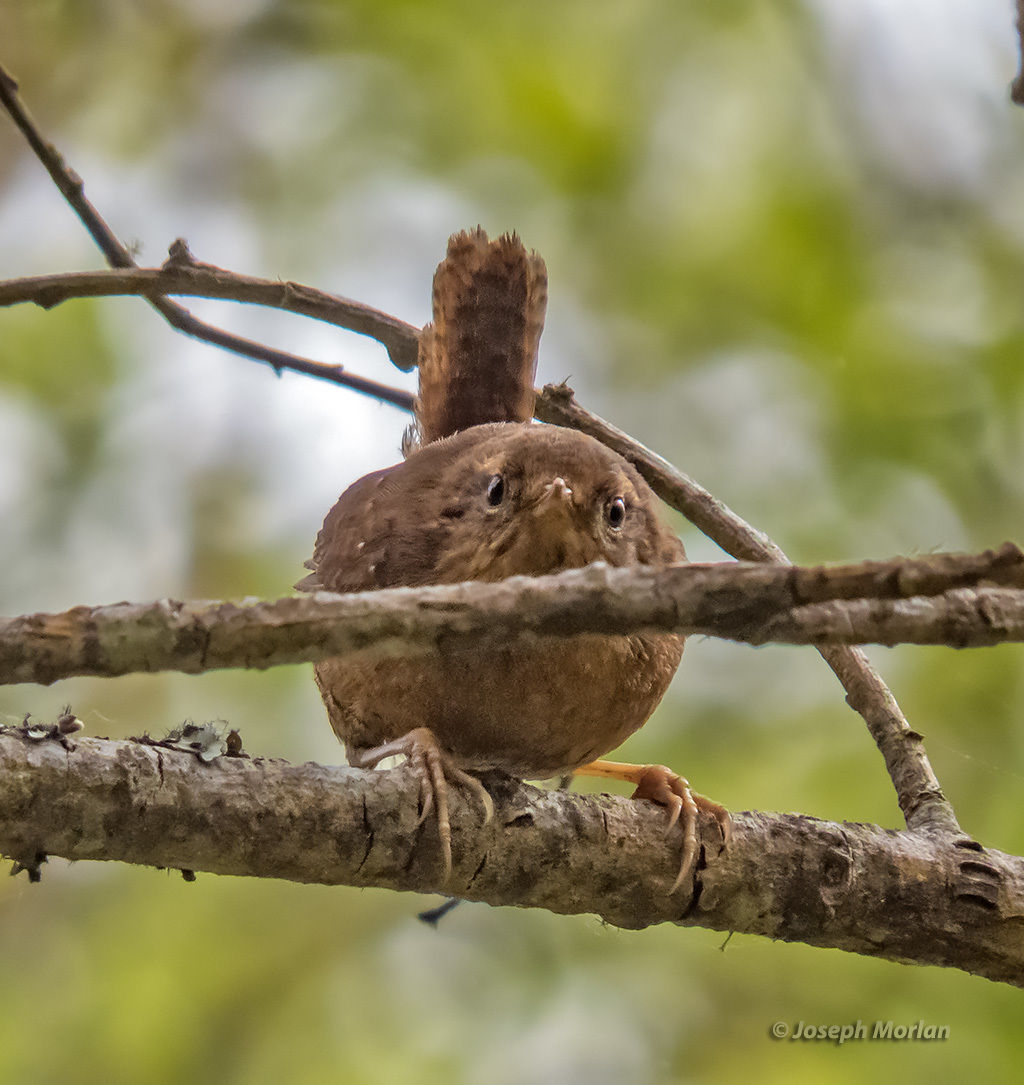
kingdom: Animalia
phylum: Chordata
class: Aves
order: Passeriformes
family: Troglodytidae
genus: Troglodytes
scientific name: Troglodytes pacificus
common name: Pacific wren
